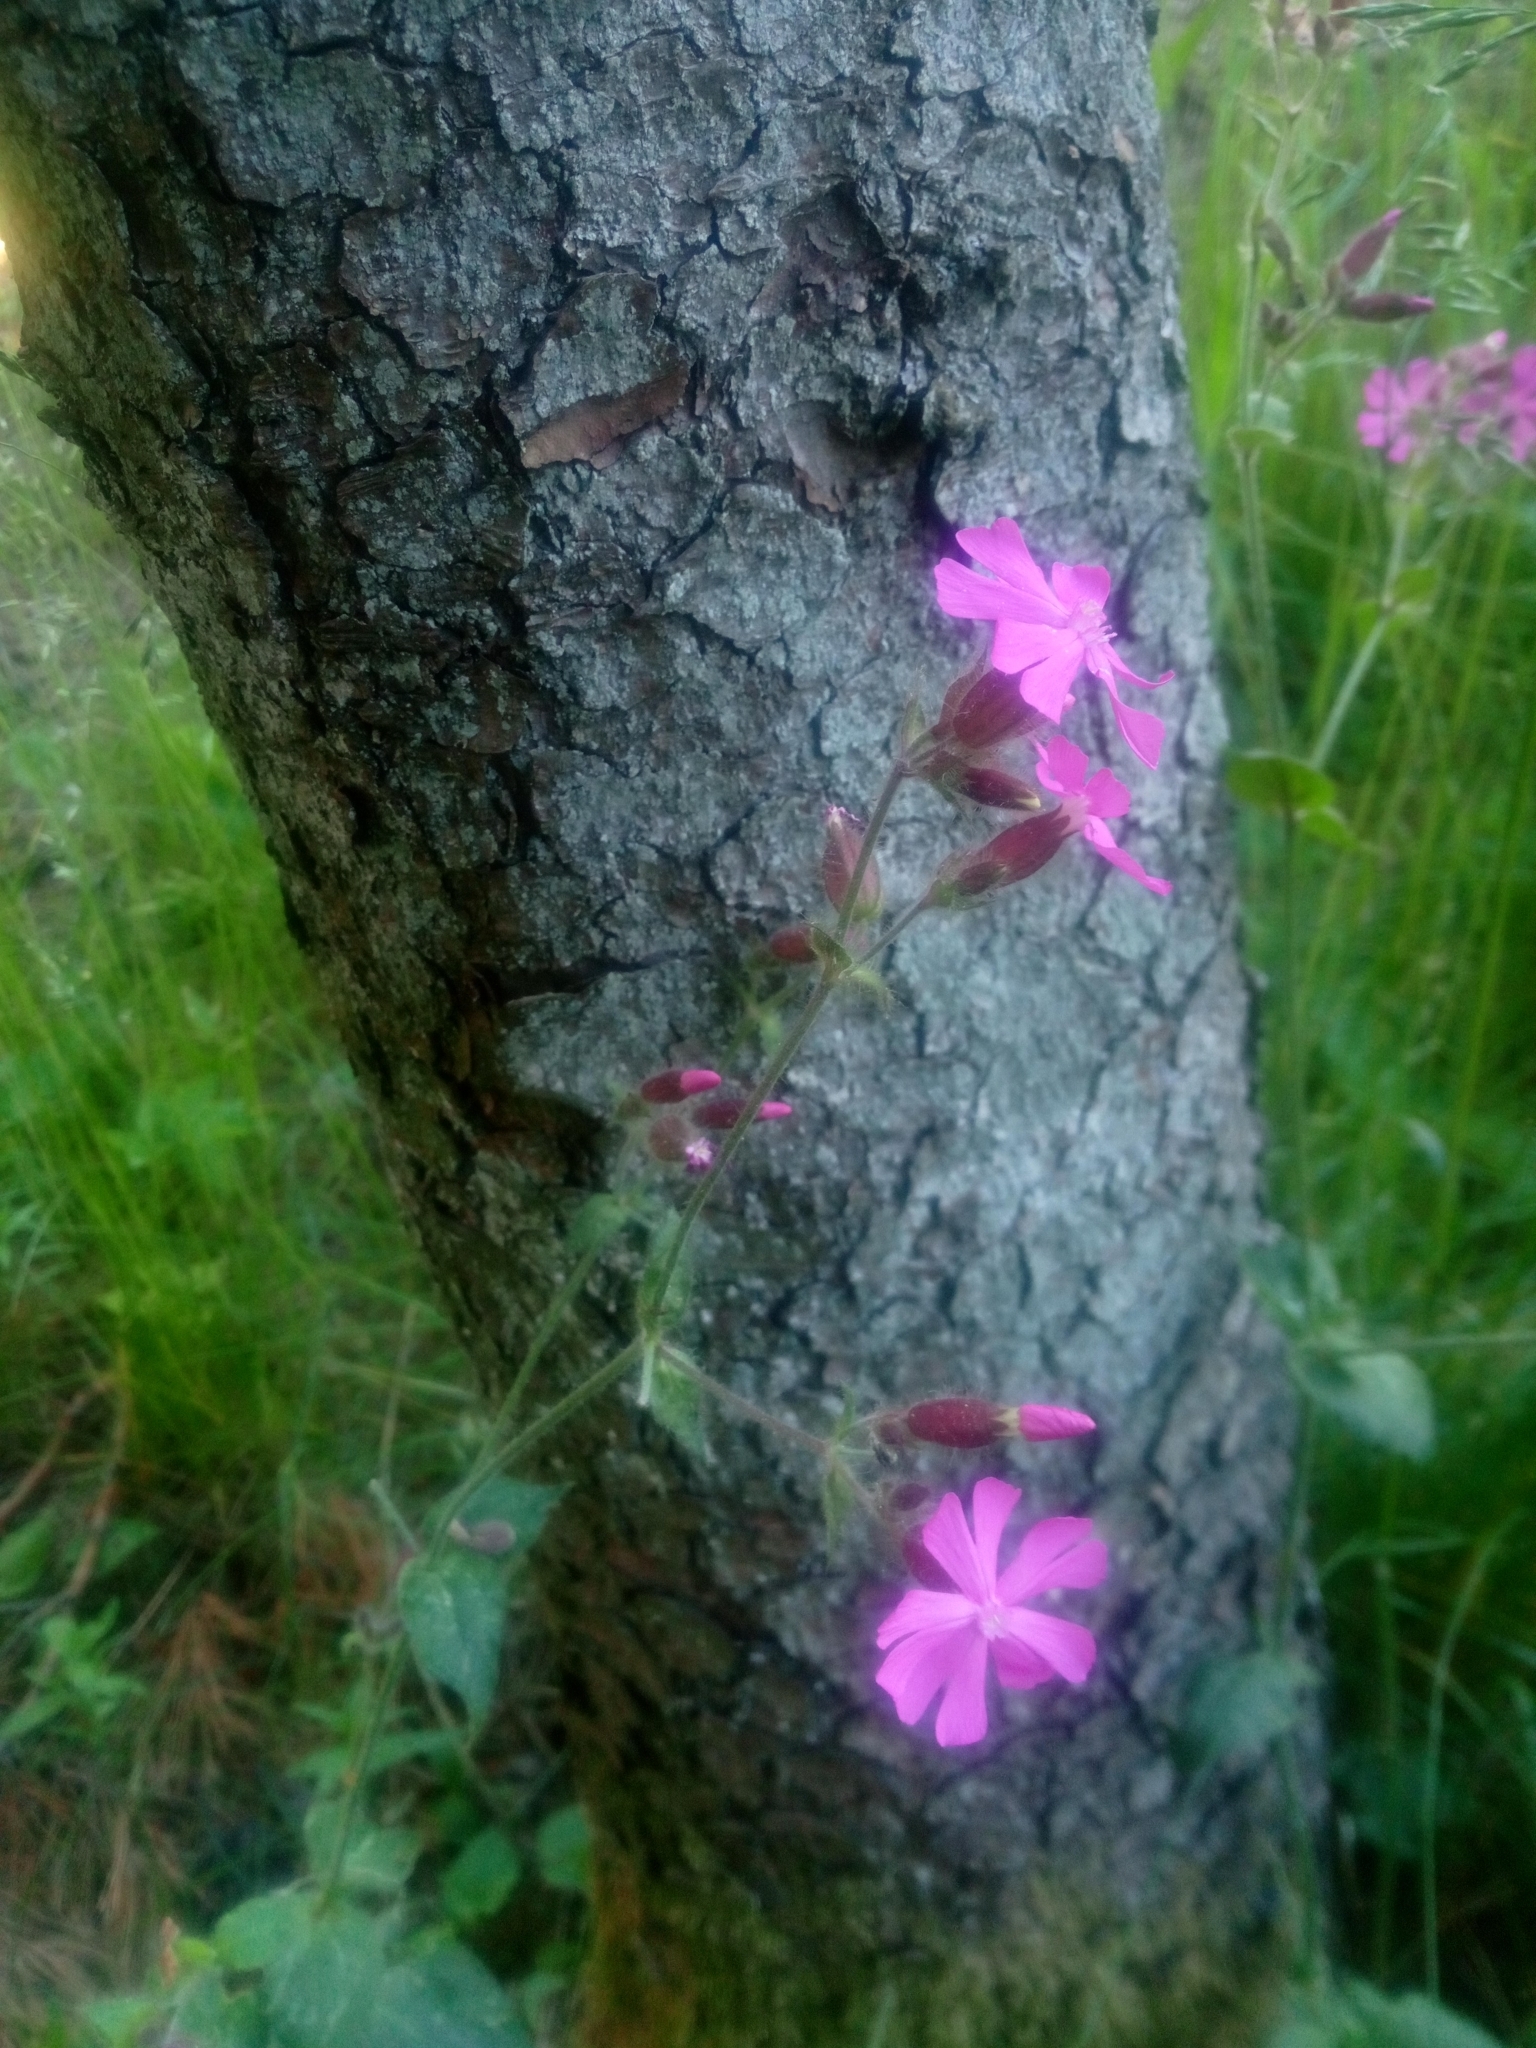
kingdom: Plantae
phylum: Tracheophyta
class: Magnoliopsida
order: Caryophyllales
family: Caryophyllaceae
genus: Silene
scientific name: Silene dioica
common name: Red campion
